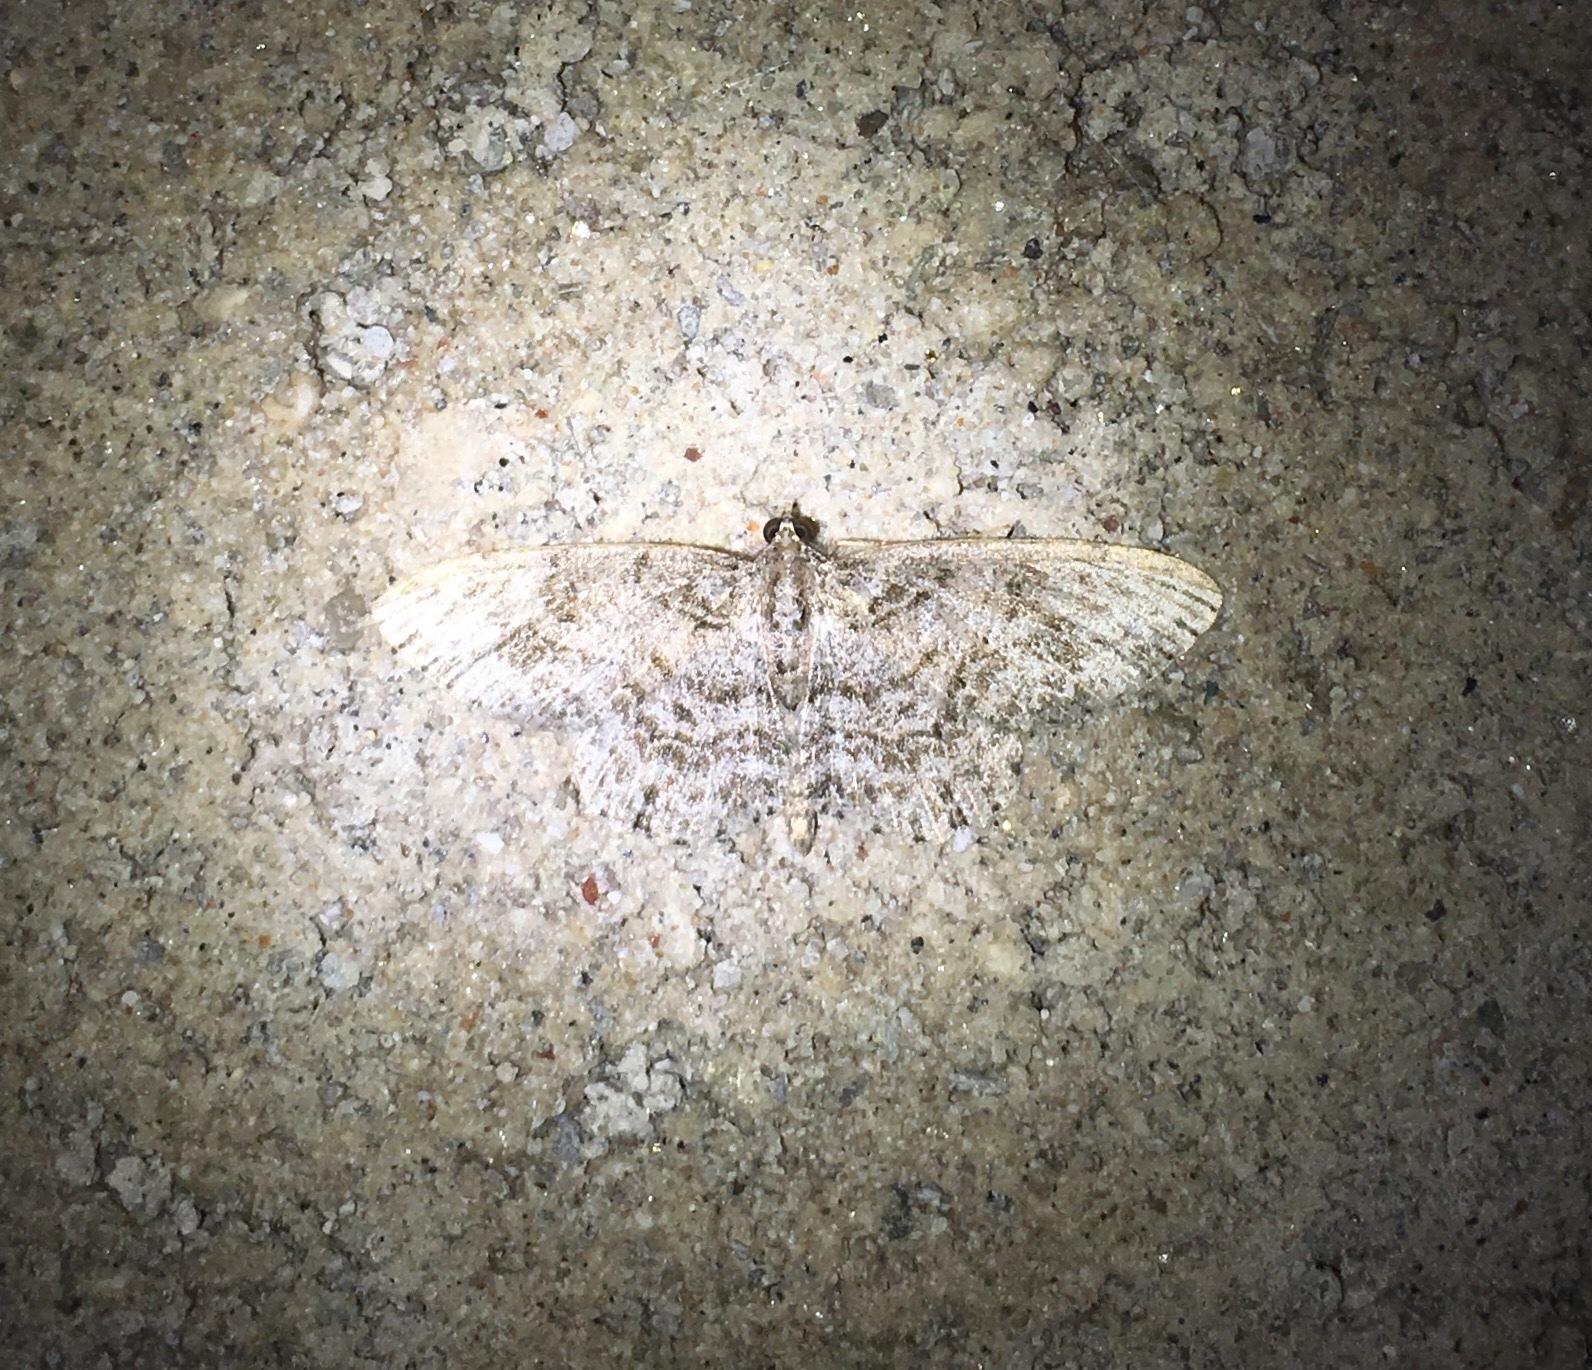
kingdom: Animalia
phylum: Arthropoda
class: Insecta
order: Lepidoptera
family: Geometridae
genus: Protoboarmia
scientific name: Protoboarmia porcelaria
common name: Porcelain gray
